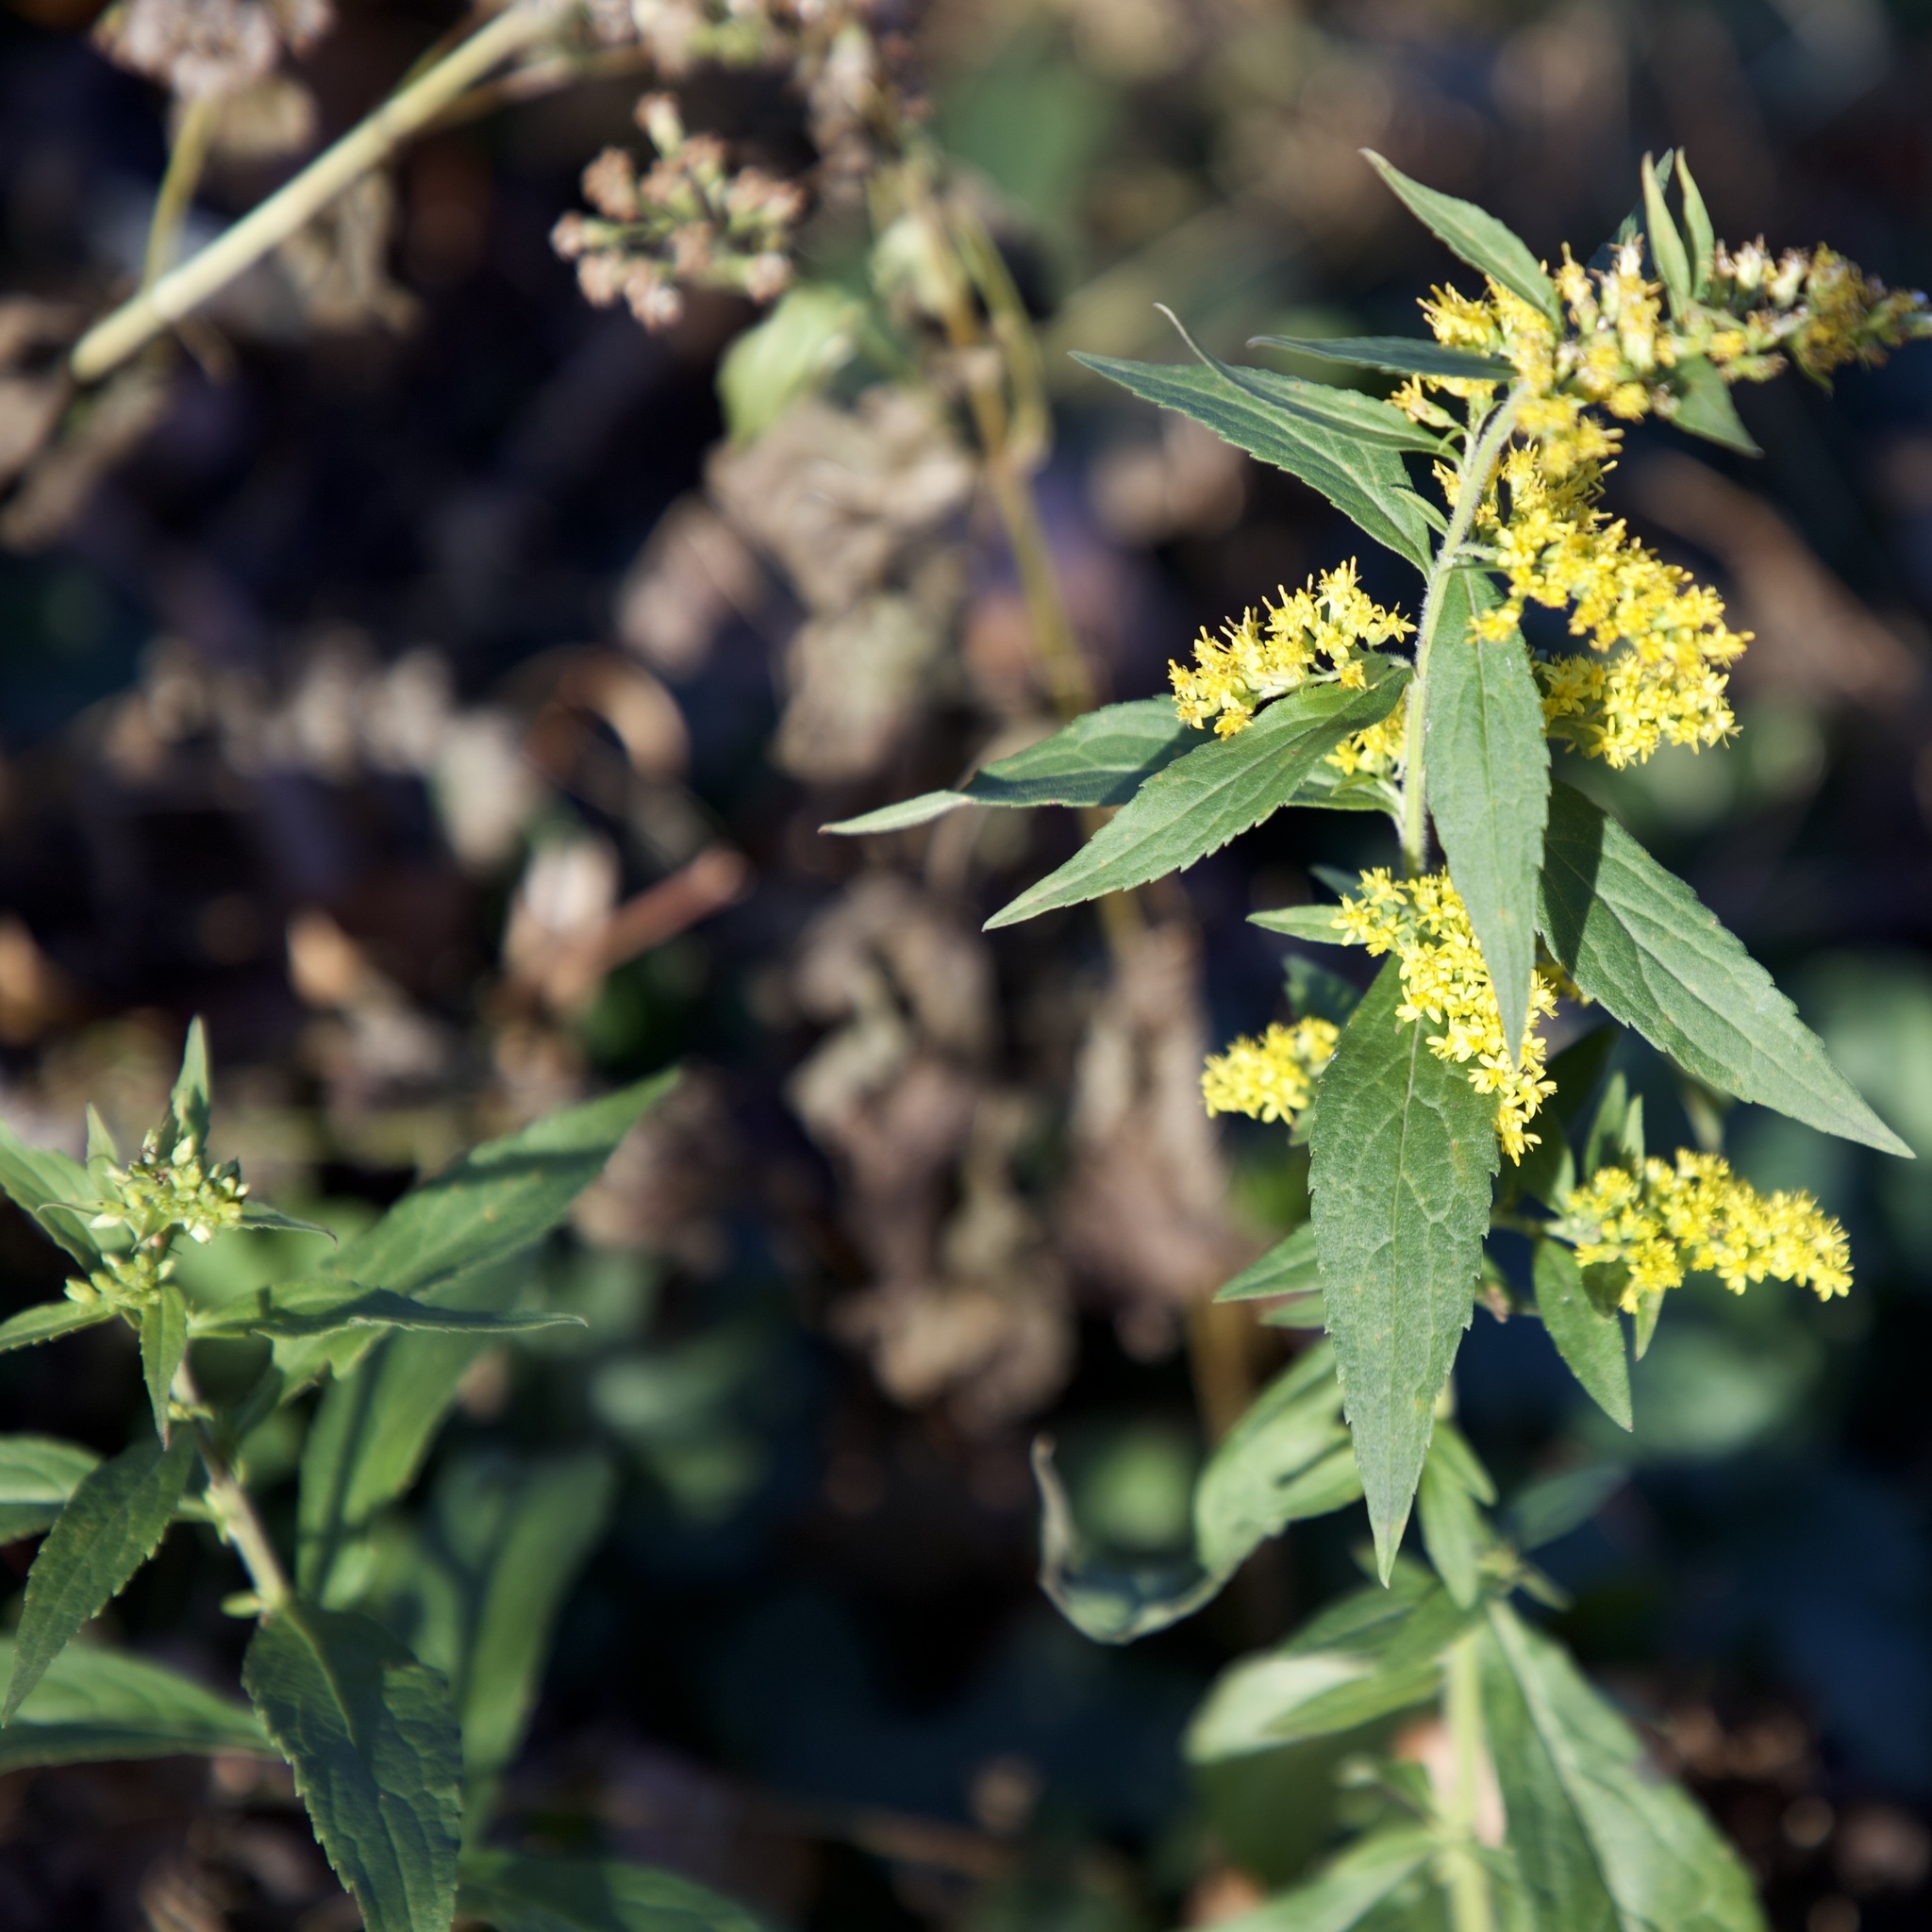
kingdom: Plantae
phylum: Tracheophyta
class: Magnoliopsida
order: Asterales
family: Asteraceae
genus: Solidago
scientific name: Solidago rugosa
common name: Rough-stemmed goldenrod
